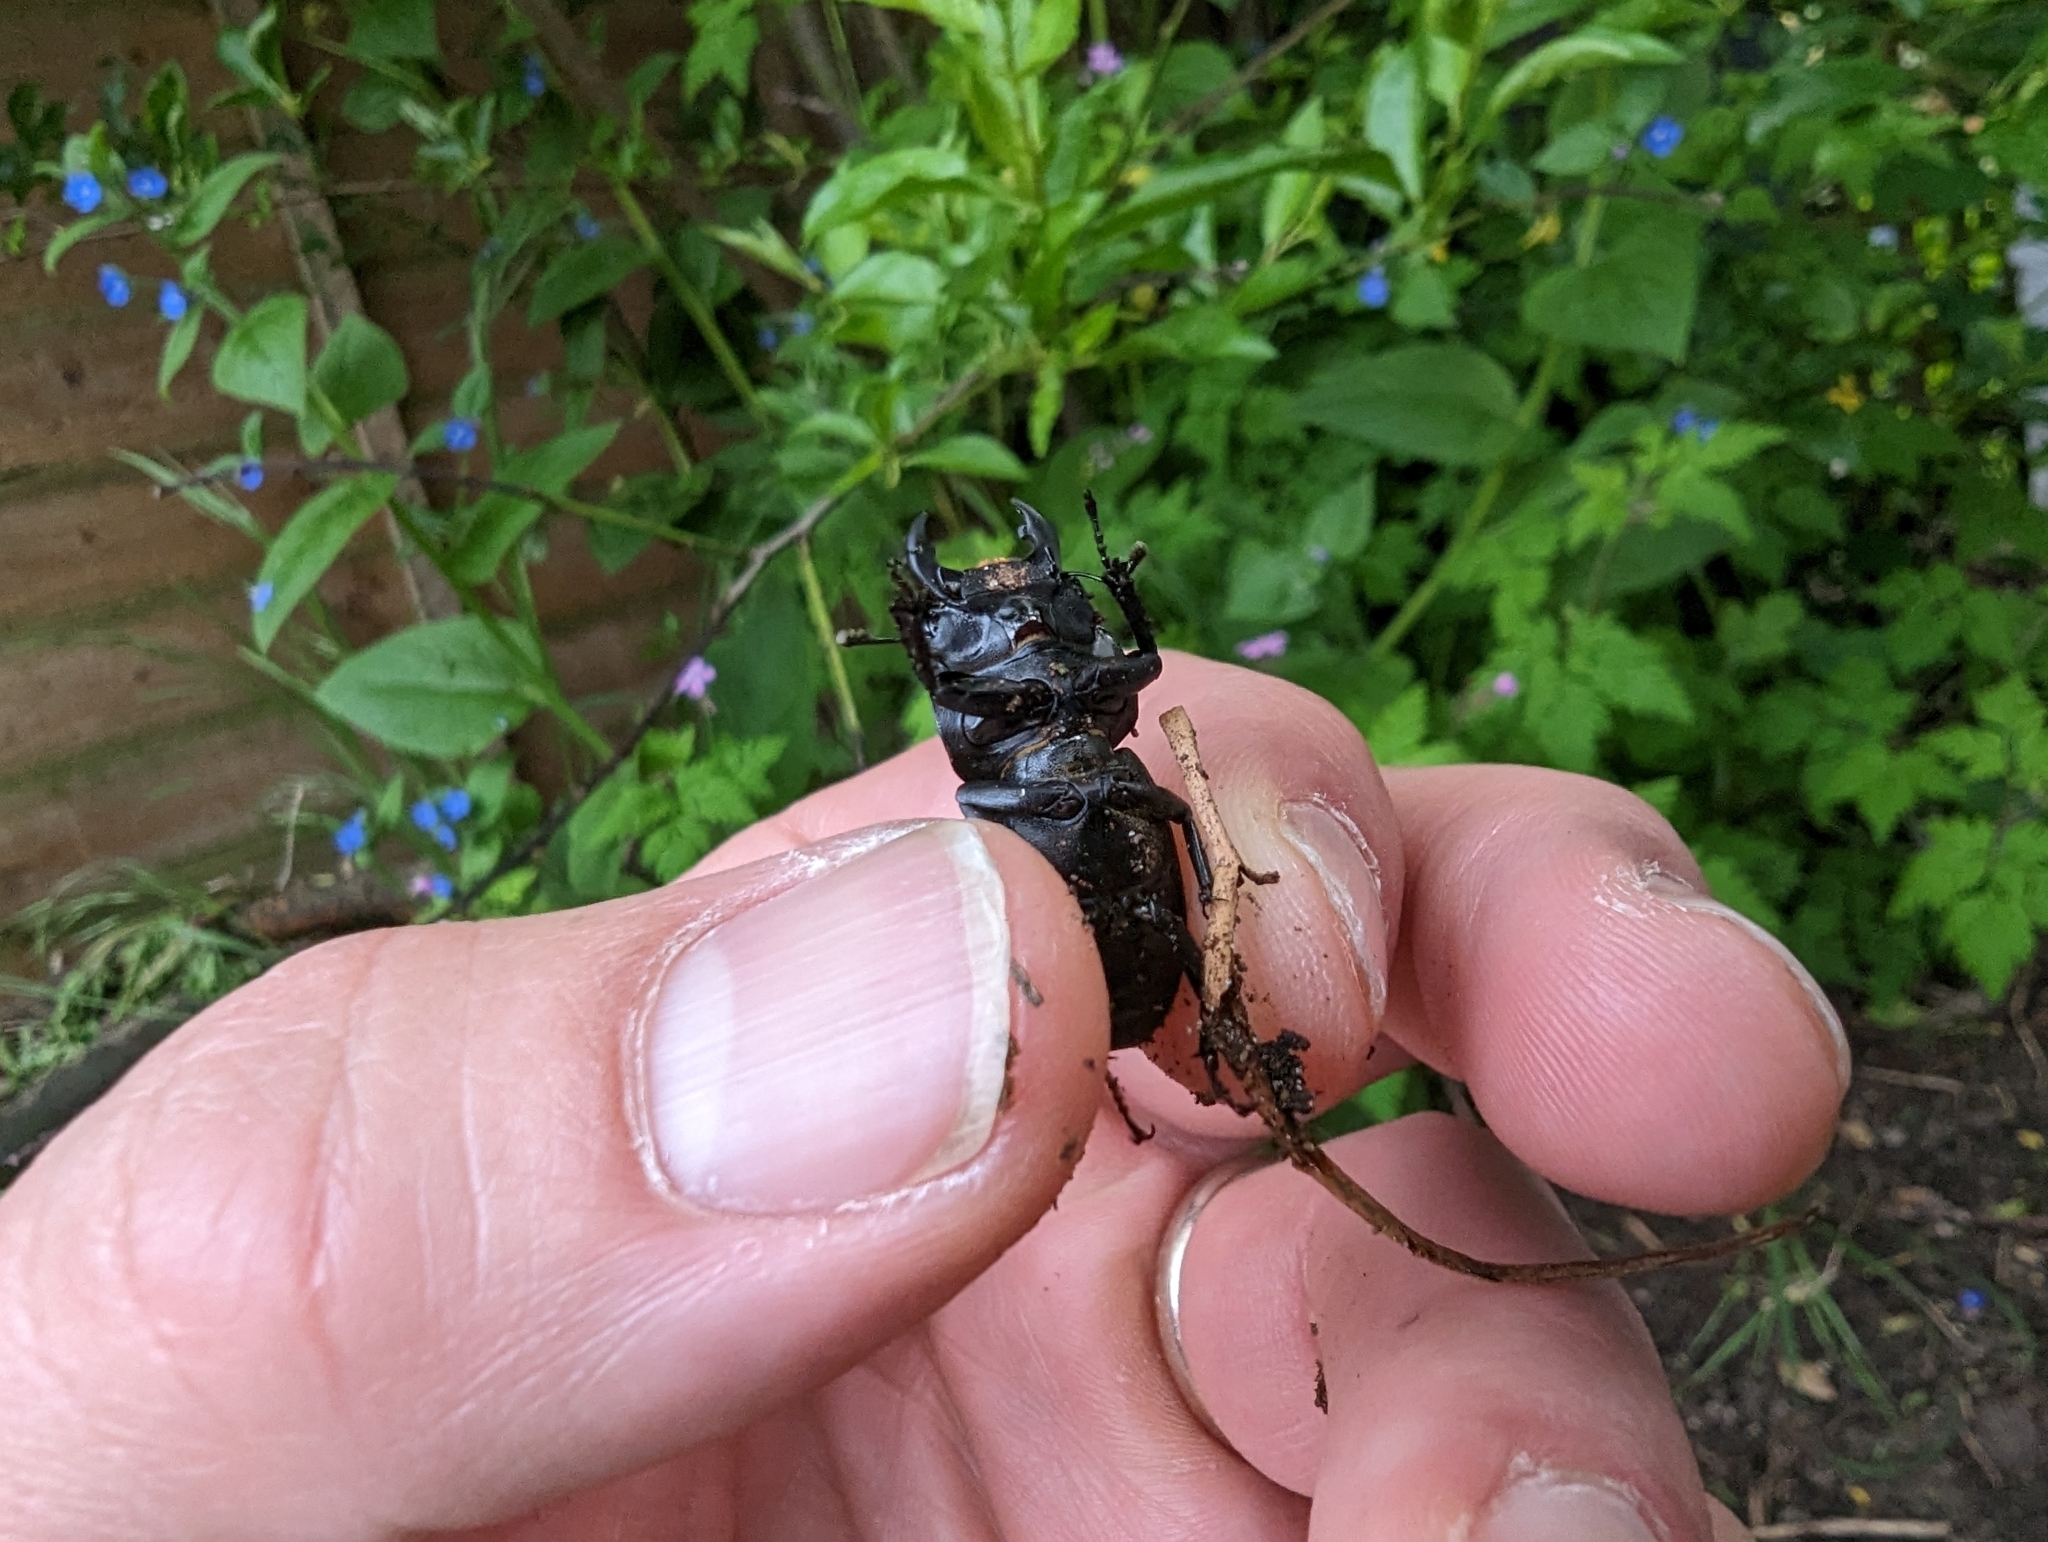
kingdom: Animalia
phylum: Arthropoda
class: Insecta
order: Coleoptera
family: Lucanidae
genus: Dorcus
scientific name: Dorcus parallelipipedus
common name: Lesser stag beetle
